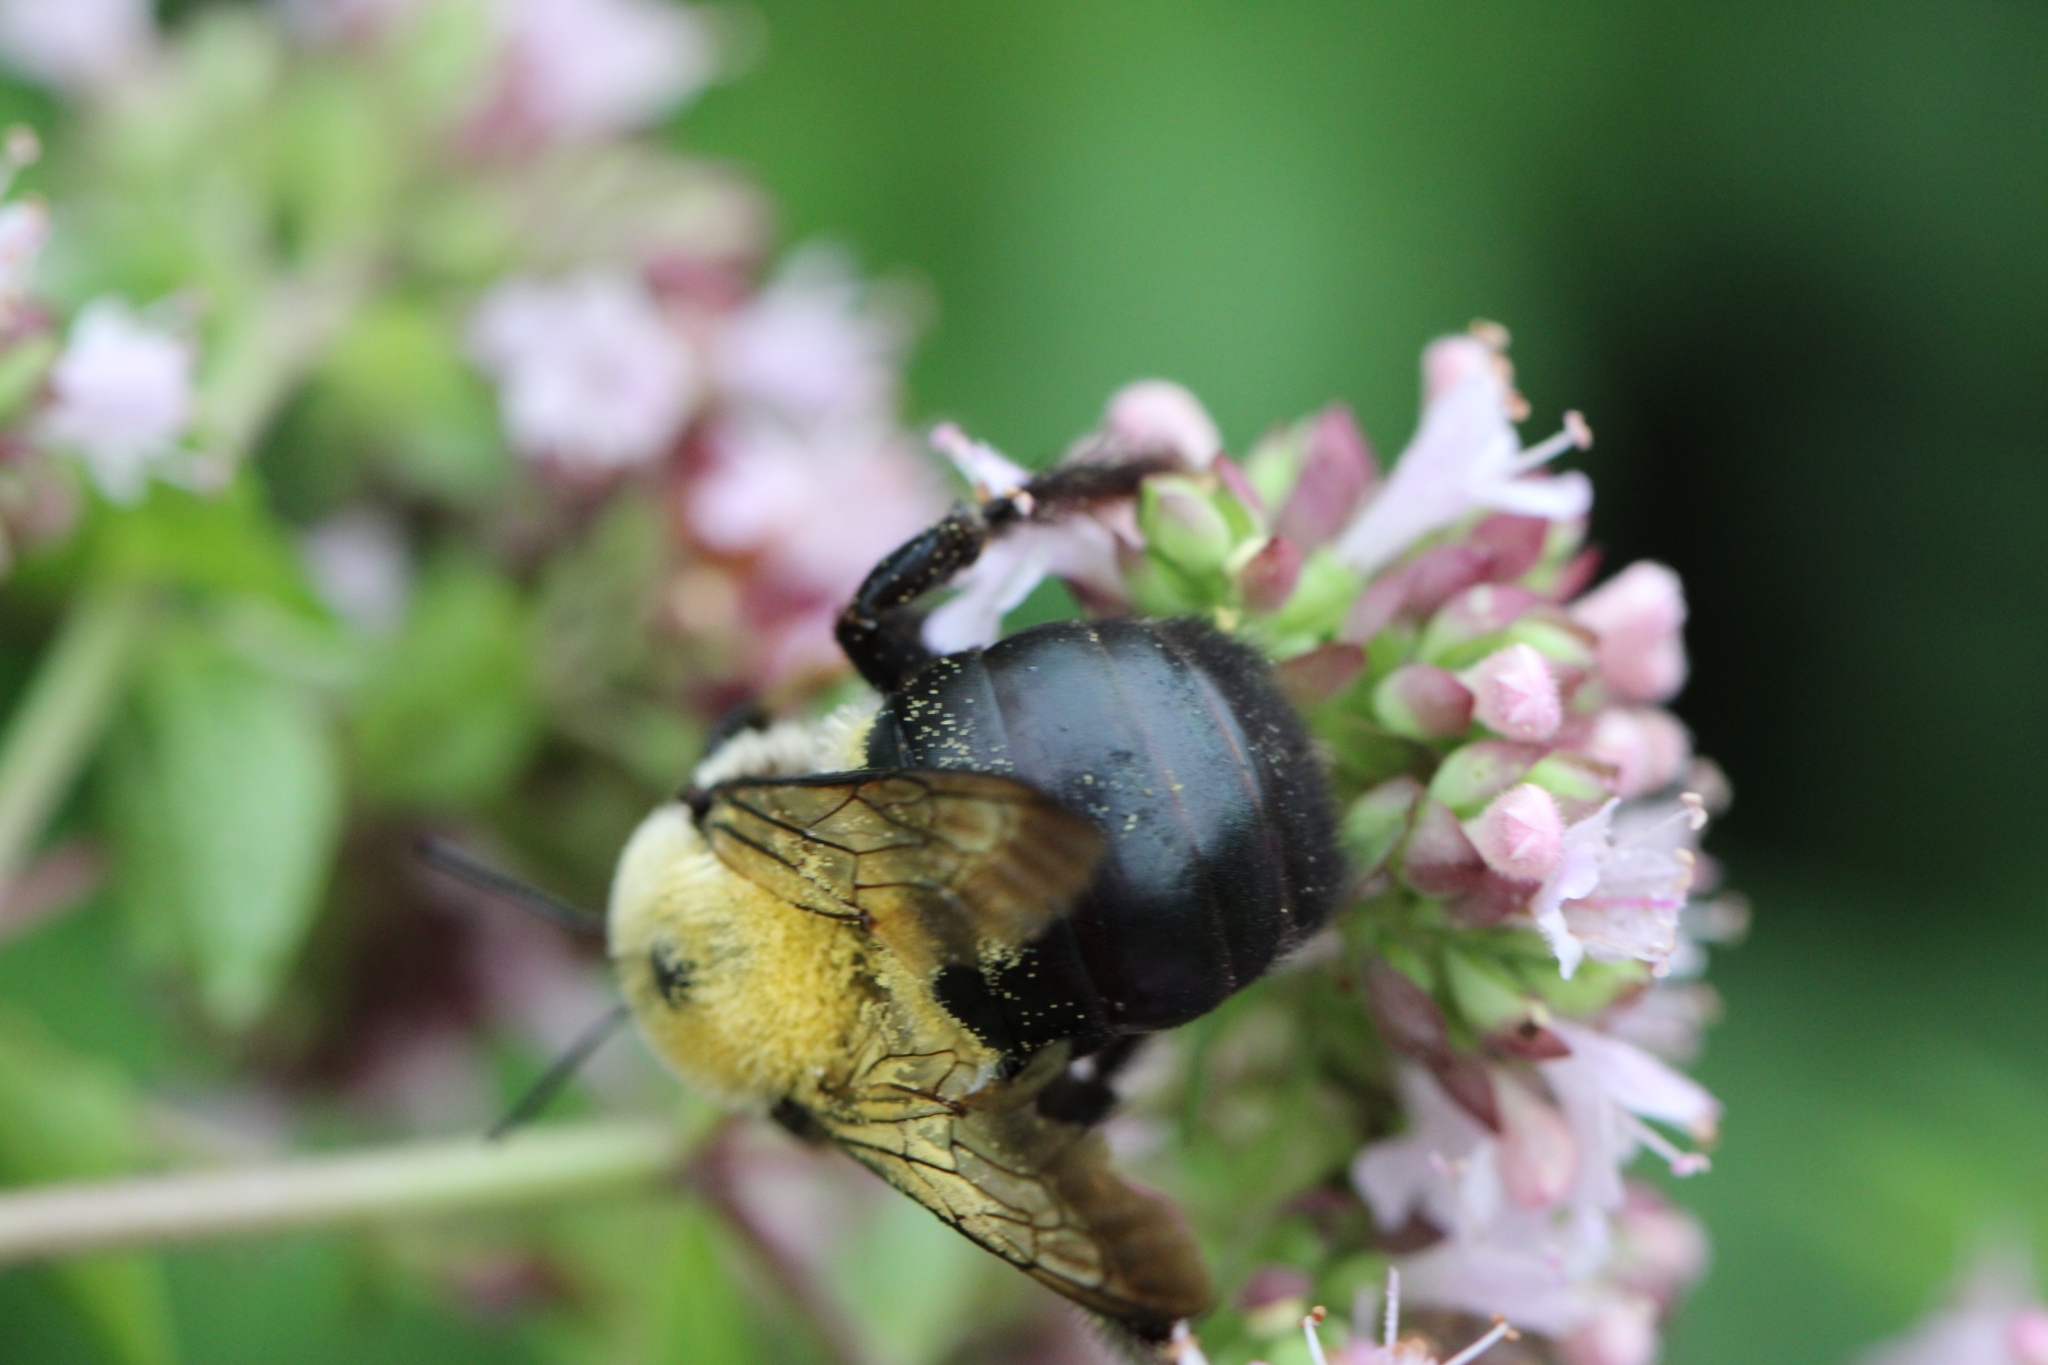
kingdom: Animalia
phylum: Arthropoda
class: Insecta
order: Hymenoptera
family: Apidae
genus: Xylocopa
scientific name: Xylocopa virginica
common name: Carpenter bee
